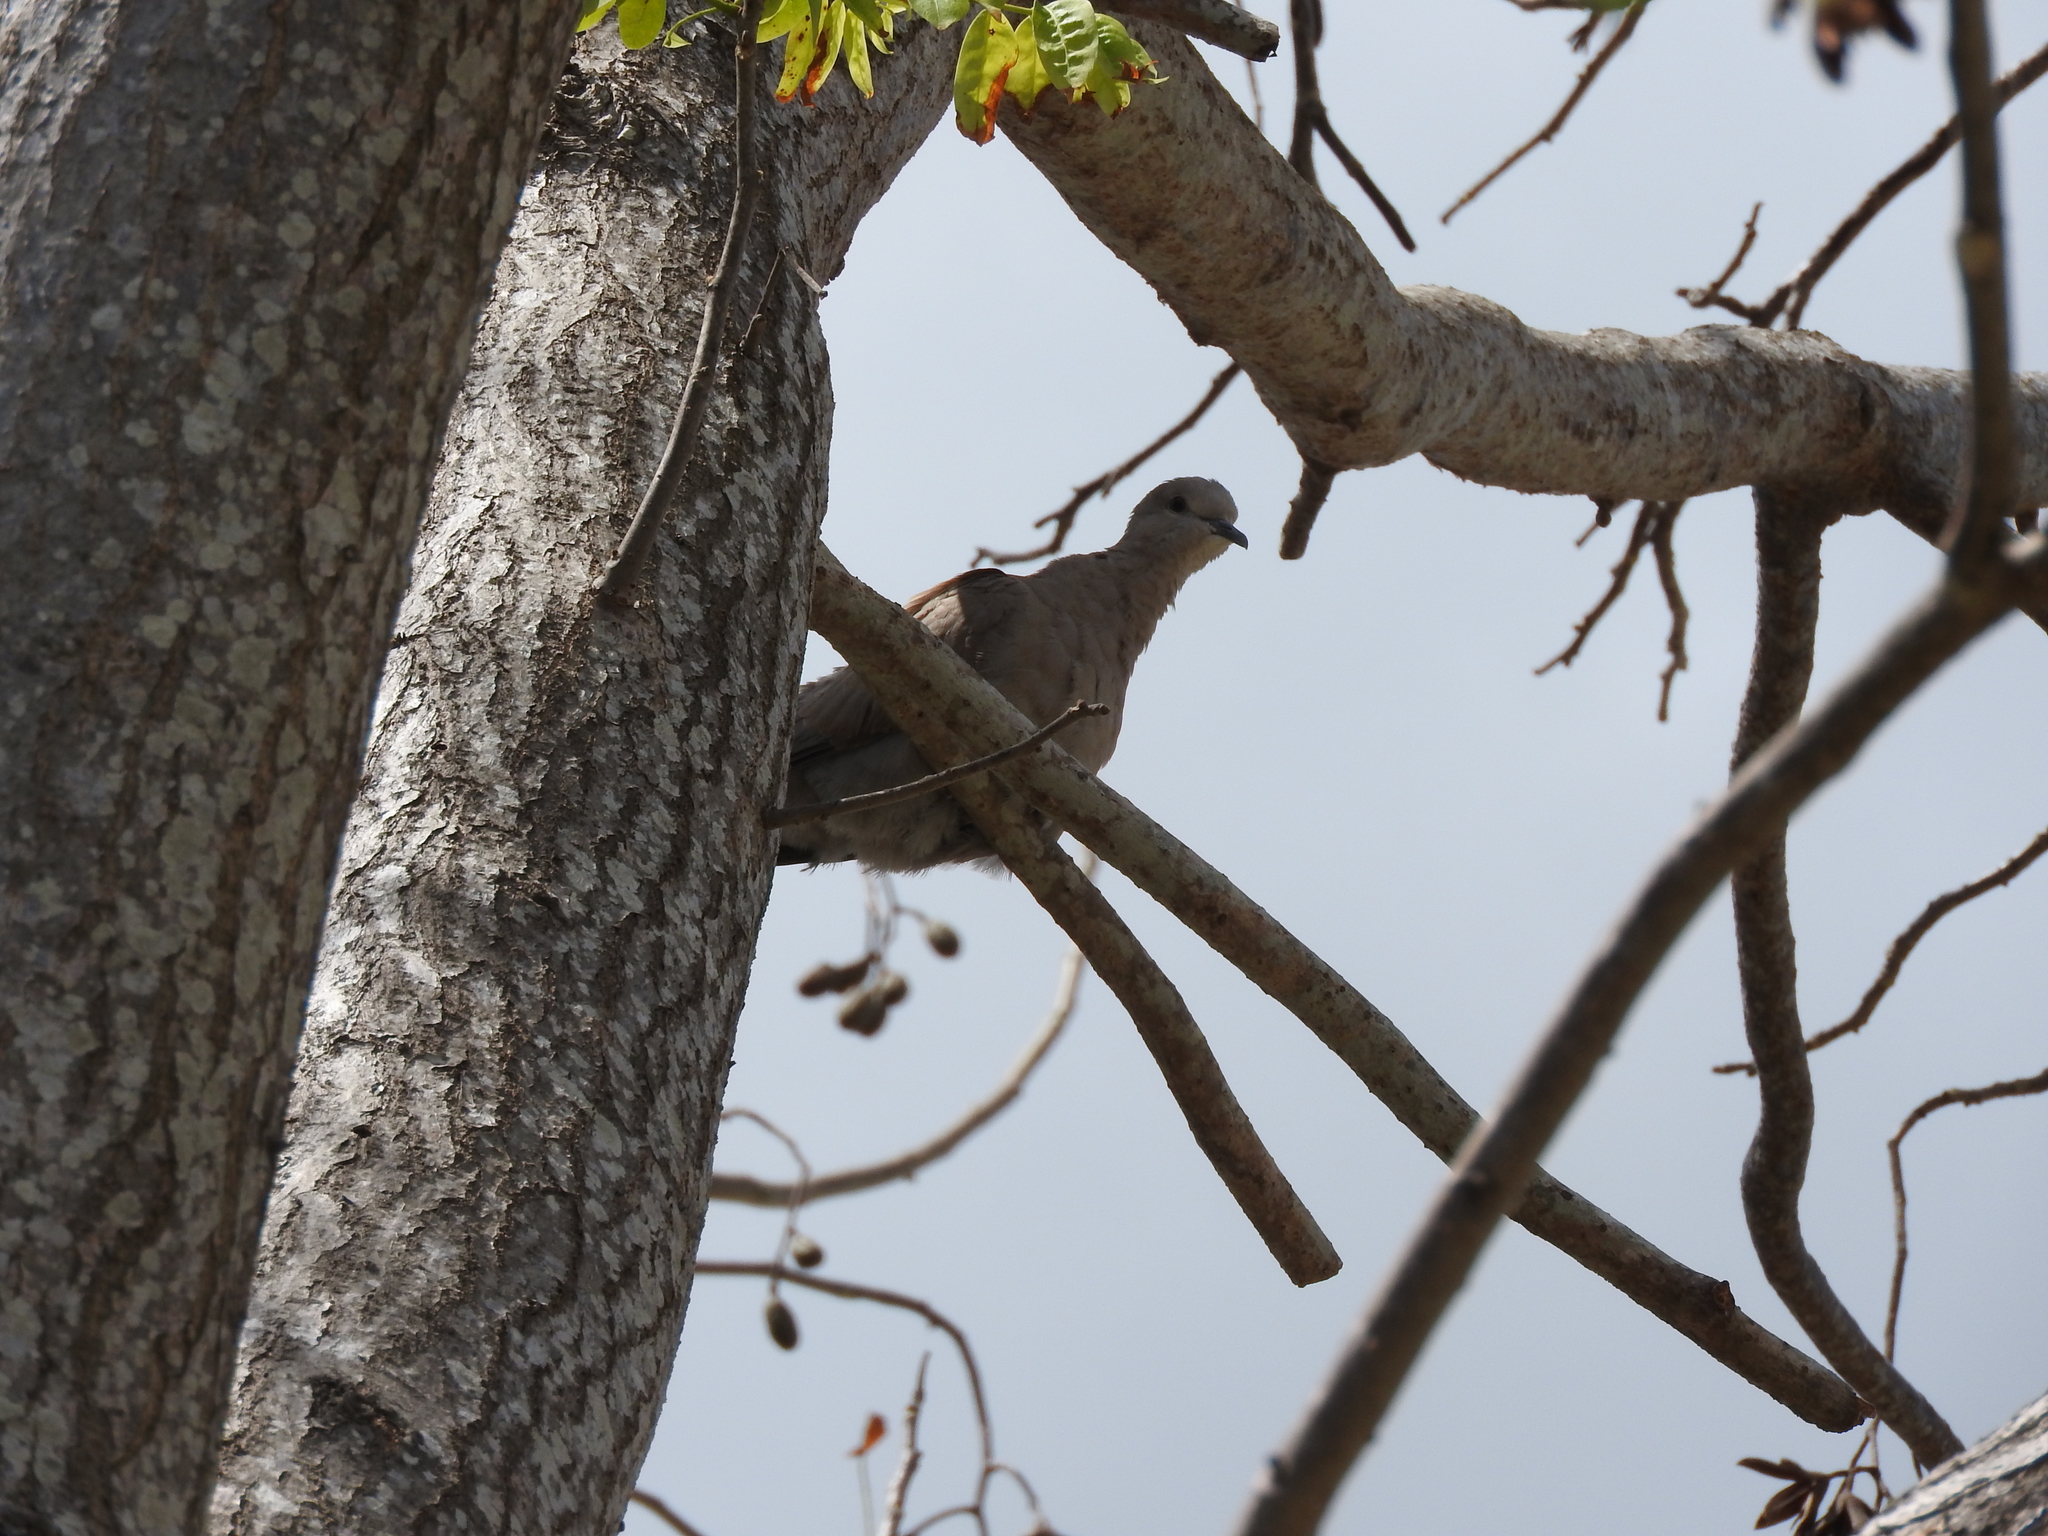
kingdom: Animalia
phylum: Chordata
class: Aves
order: Columbiformes
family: Columbidae
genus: Streptopelia
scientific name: Streptopelia decaocto
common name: Eurasian collared dove
